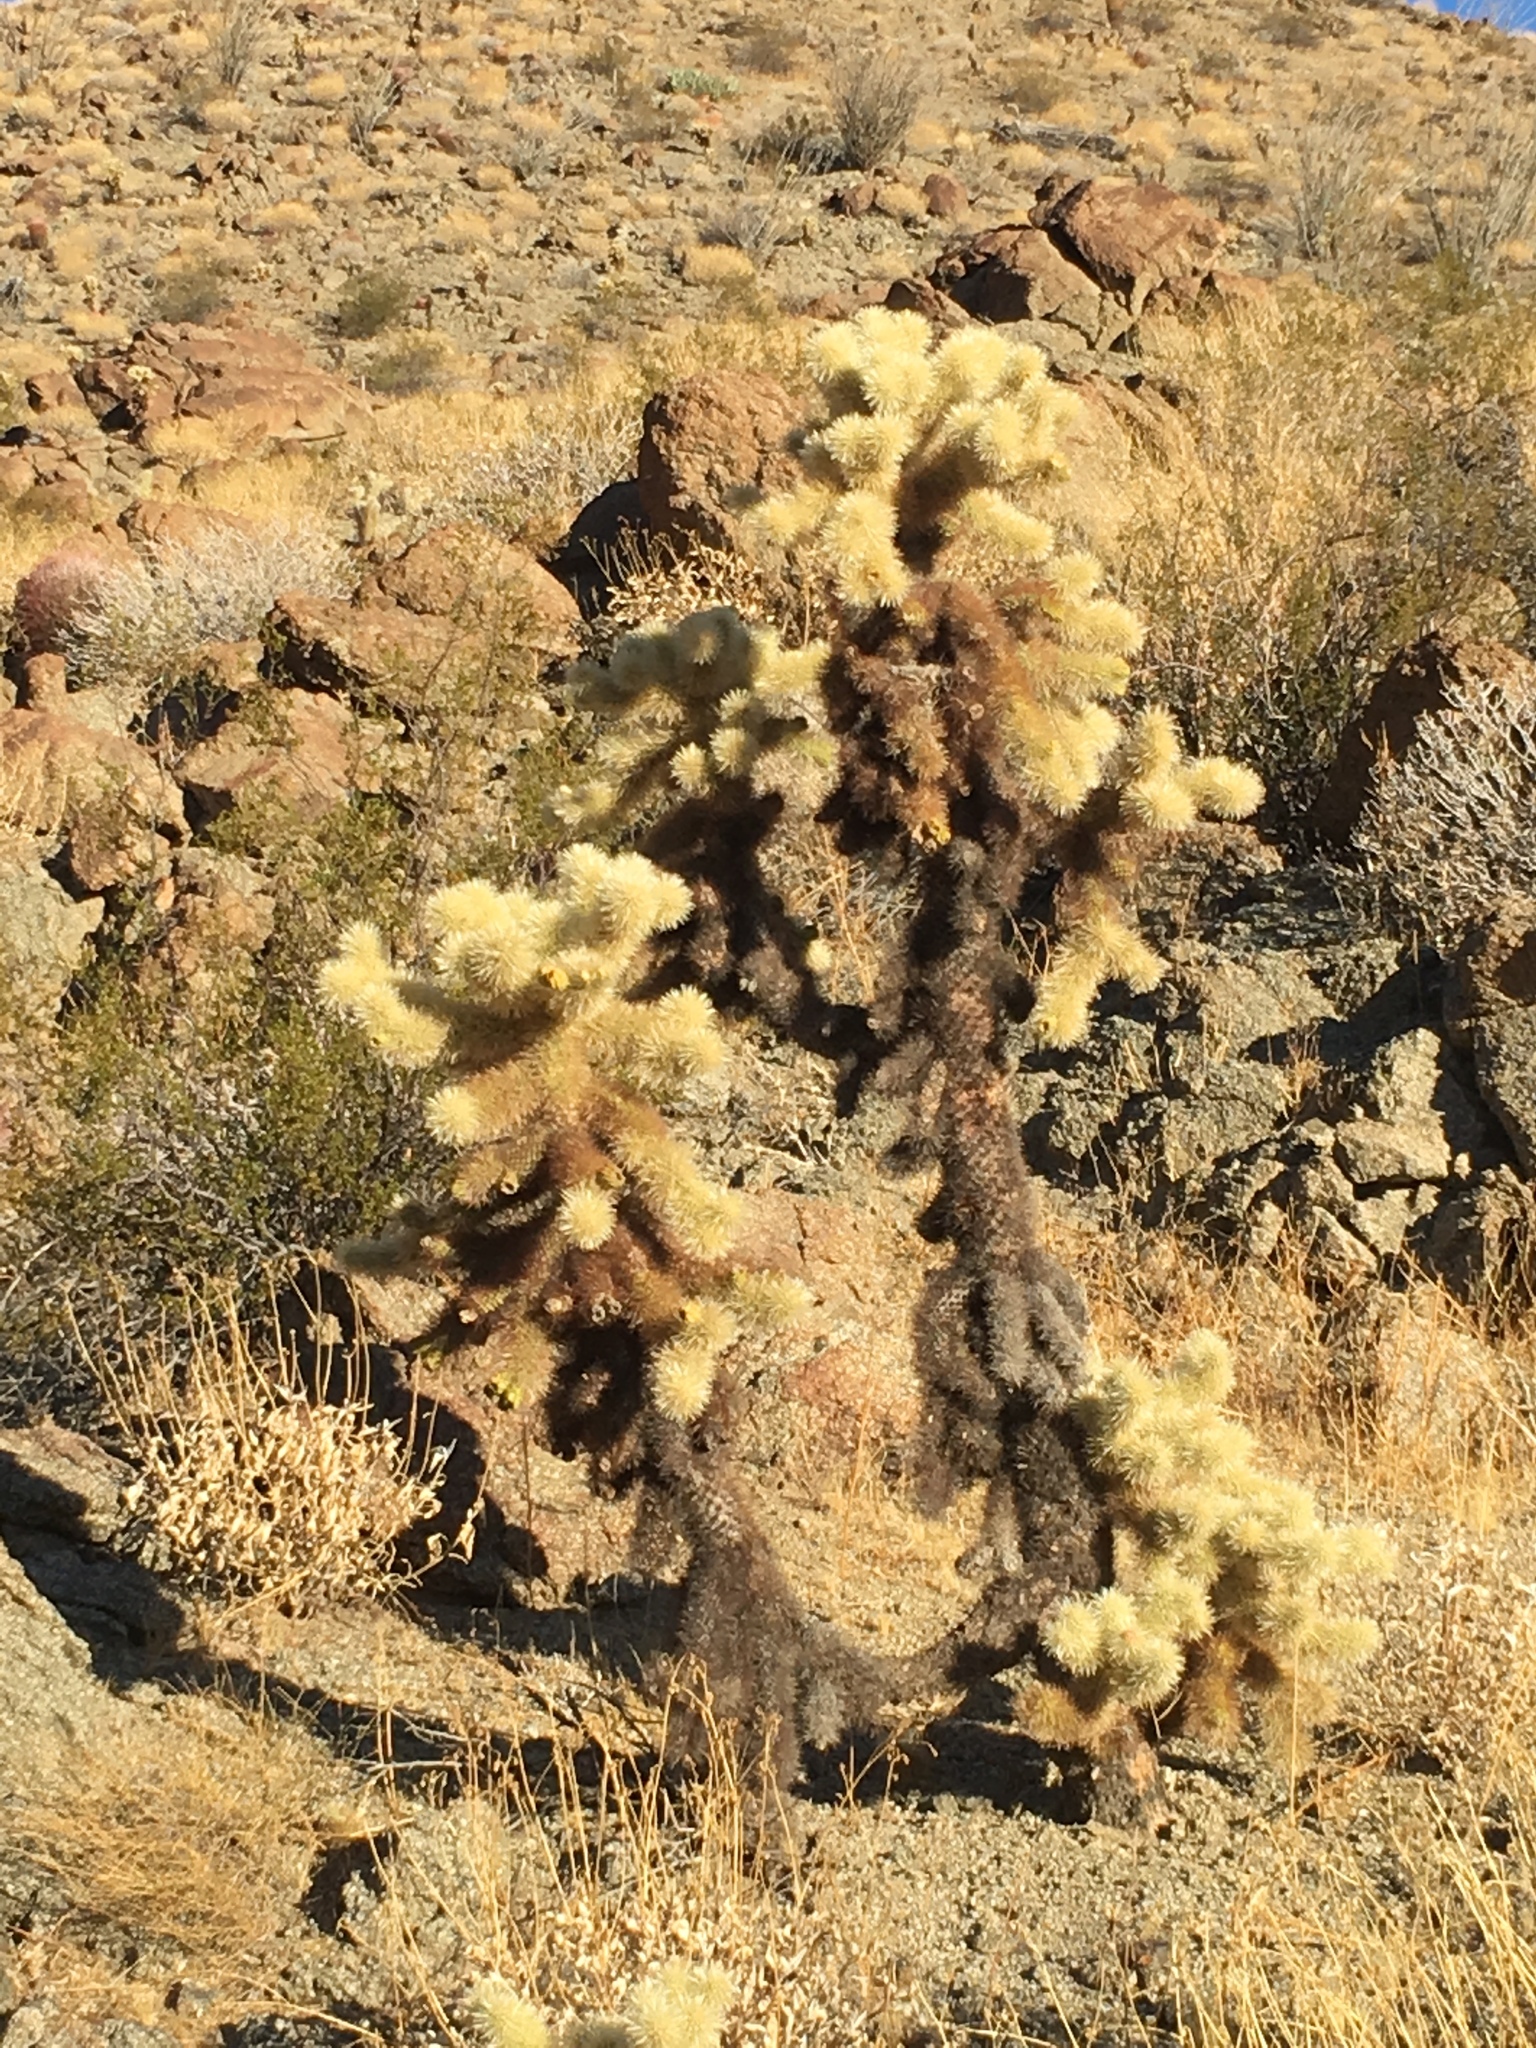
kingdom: Plantae
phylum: Tracheophyta
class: Magnoliopsida
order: Caryophyllales
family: Cactaceae
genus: Cylindropuntia
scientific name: Cylindropuntia fosbergii
